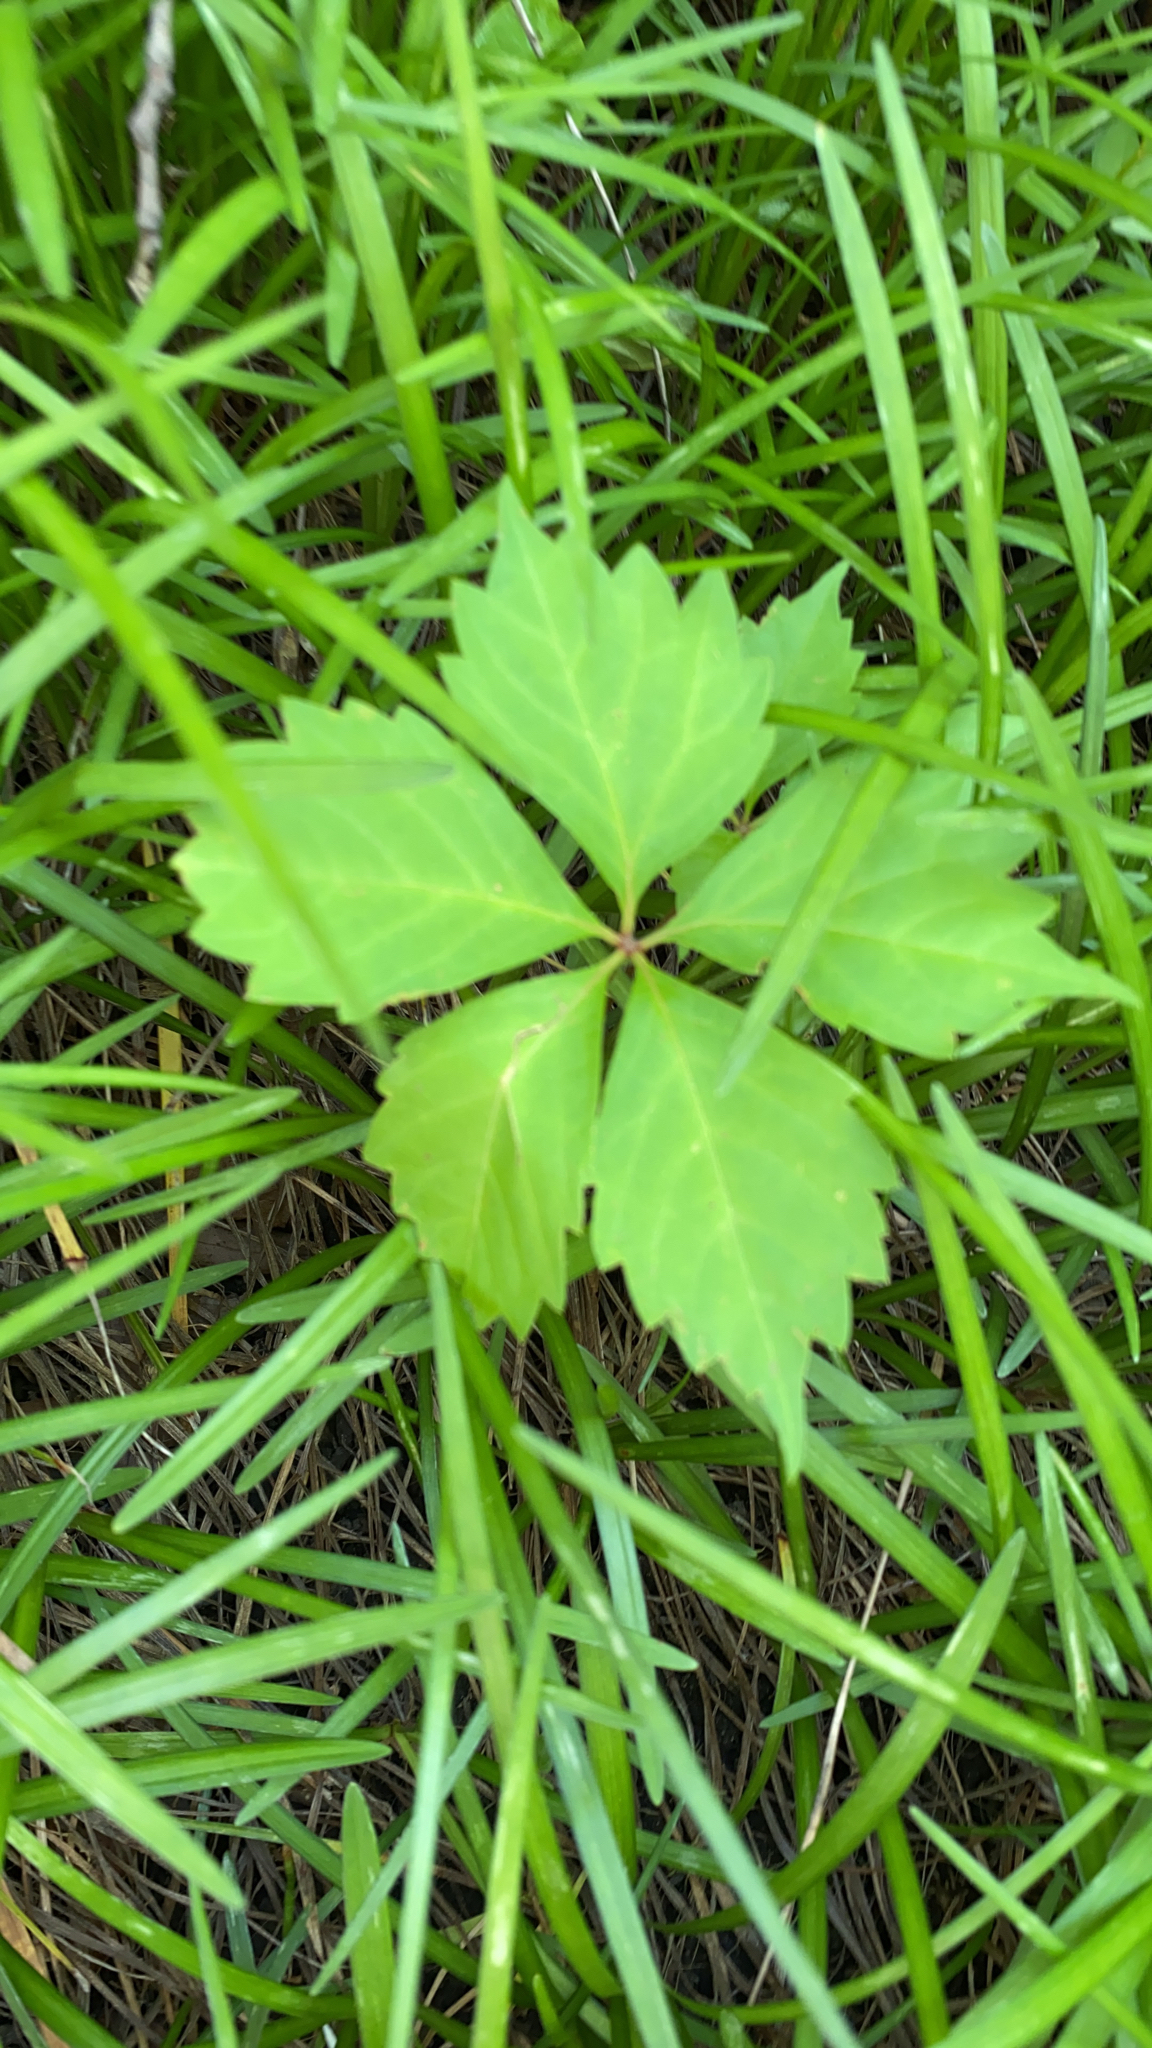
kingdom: Plantae
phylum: Tracheophyta
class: Magnoliopsida
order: Vitales
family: Vitaceae
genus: Parthenocissus
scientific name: Parthenocissus quinquefolia
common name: Virginia-creeper
